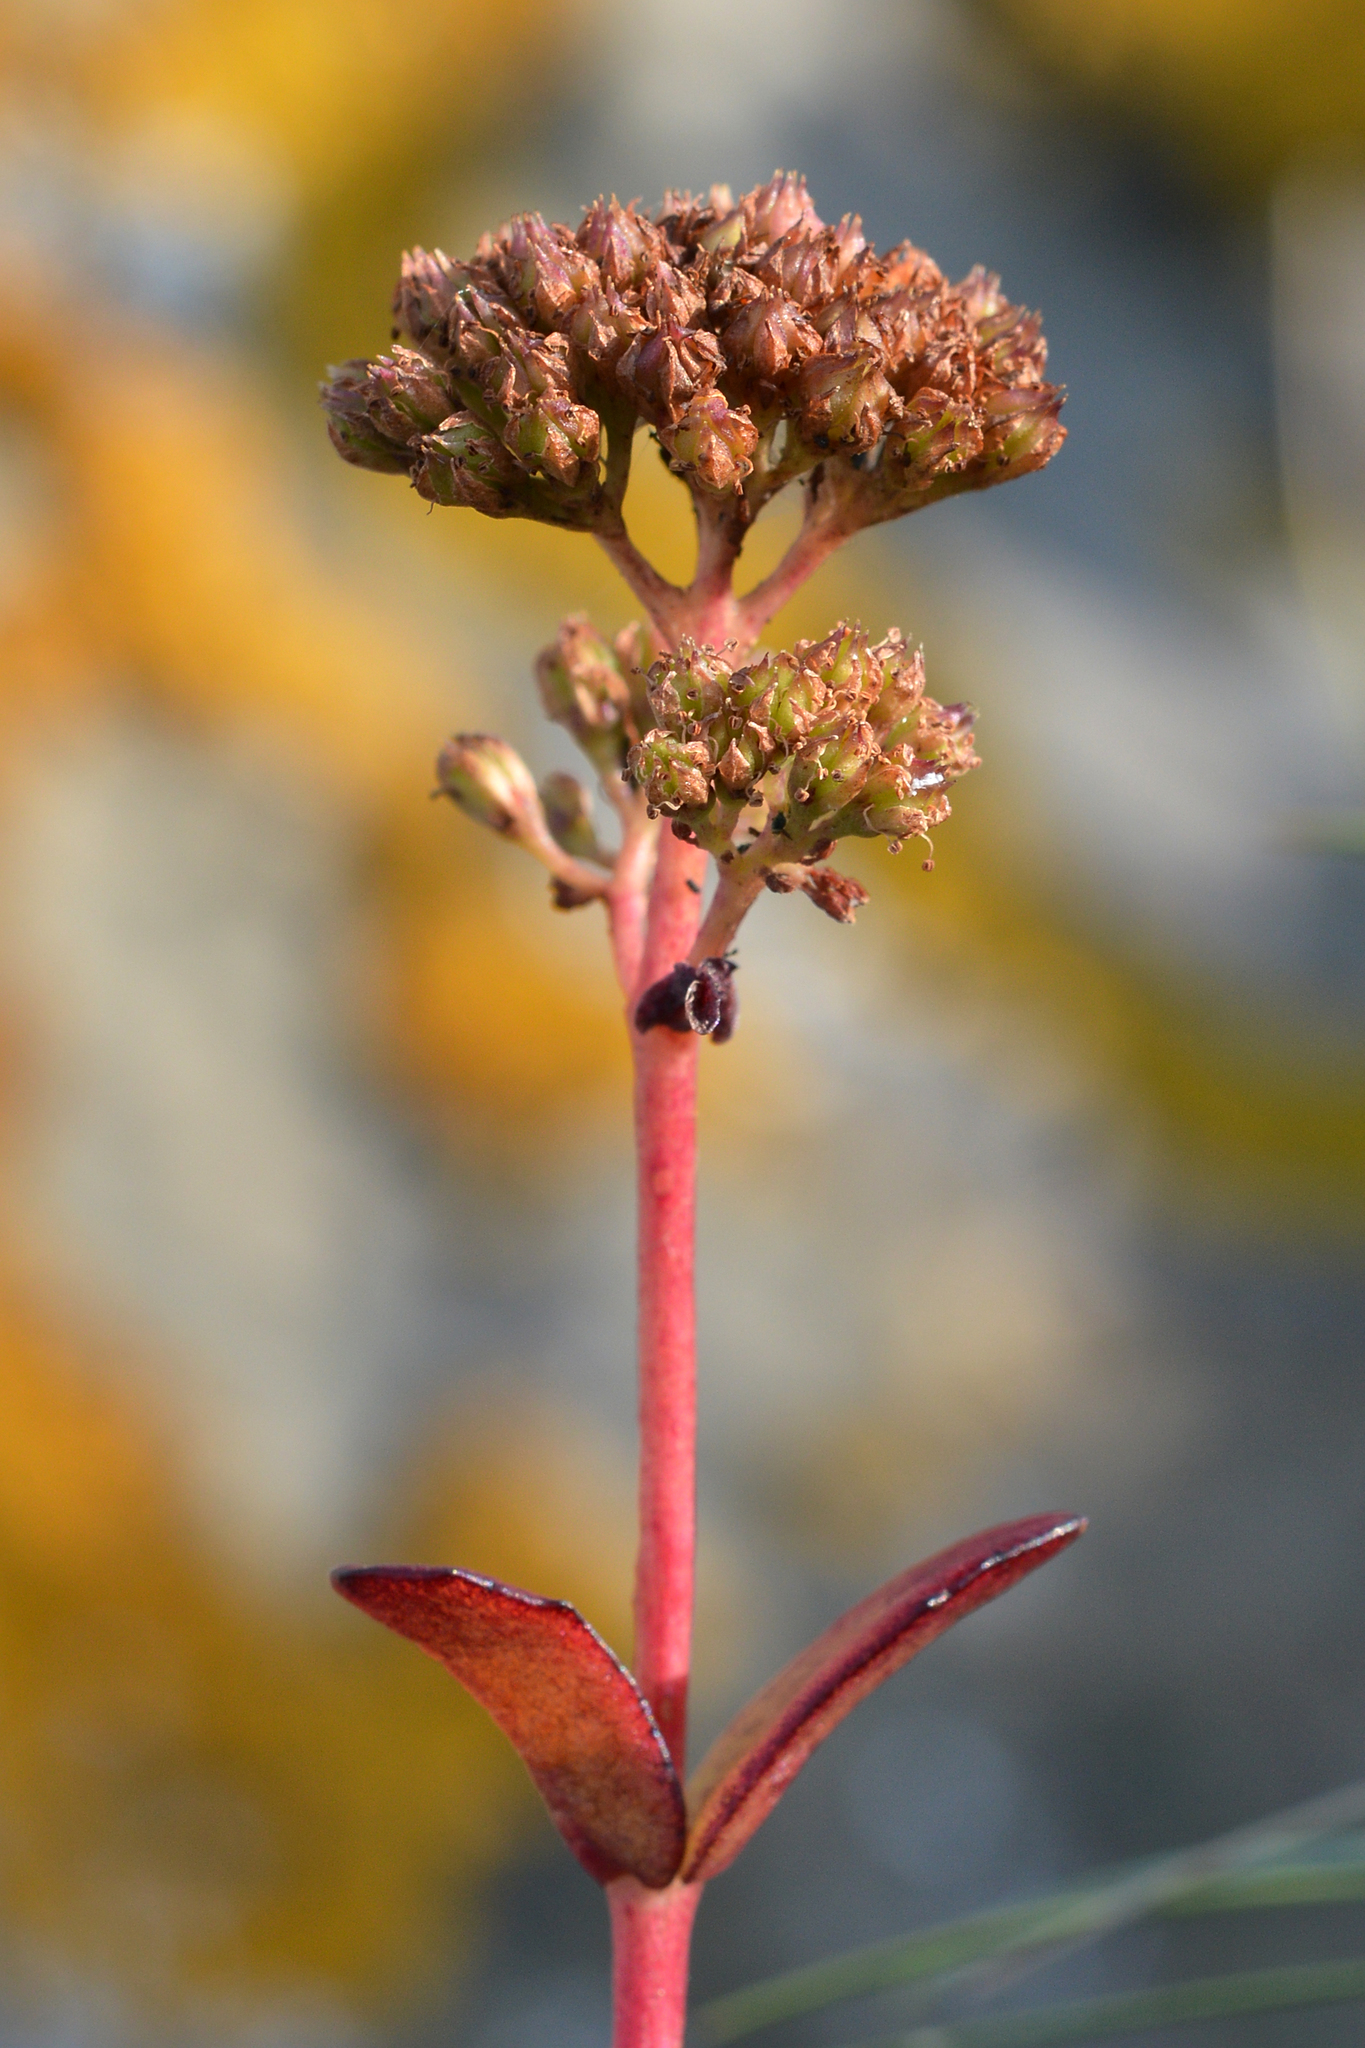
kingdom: Plantae
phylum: Tracheophyta
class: Magnoliopsida
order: Saxifragales
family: Crassulaceae
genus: Hylotelephium
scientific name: Hylotelephium maximum
